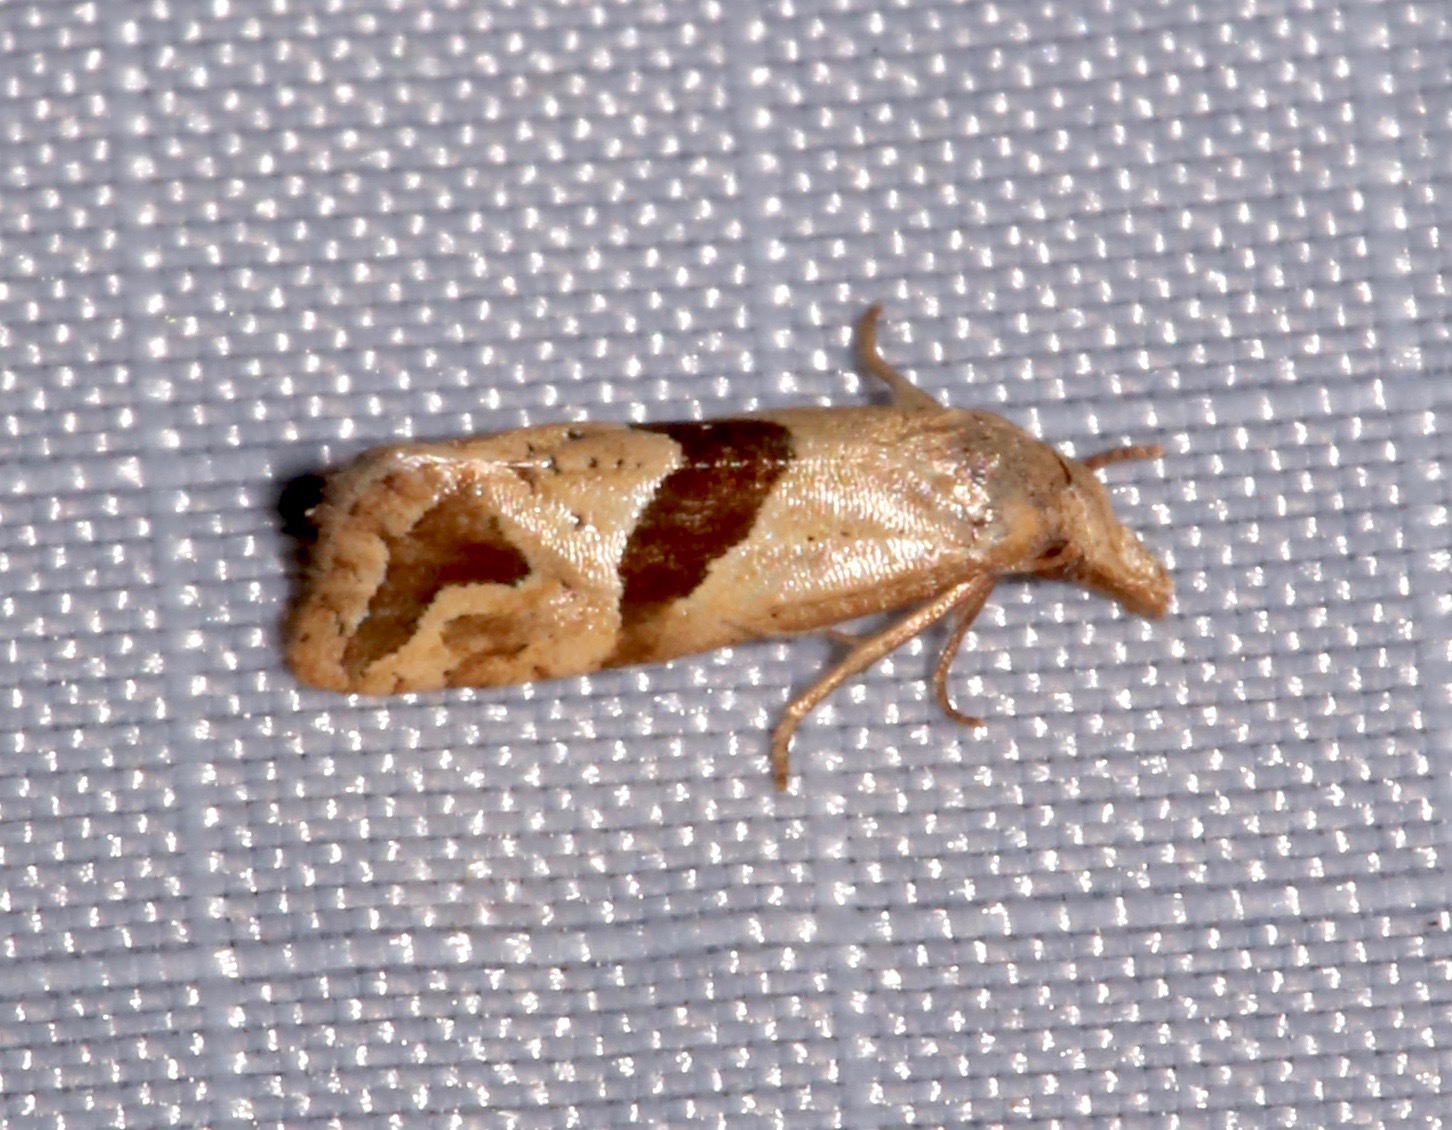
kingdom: Animalia
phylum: Arthropoda
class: Insecta
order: Lepidoptera
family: Tortricidae
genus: Eugnosta
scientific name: Eugnosta sartana
